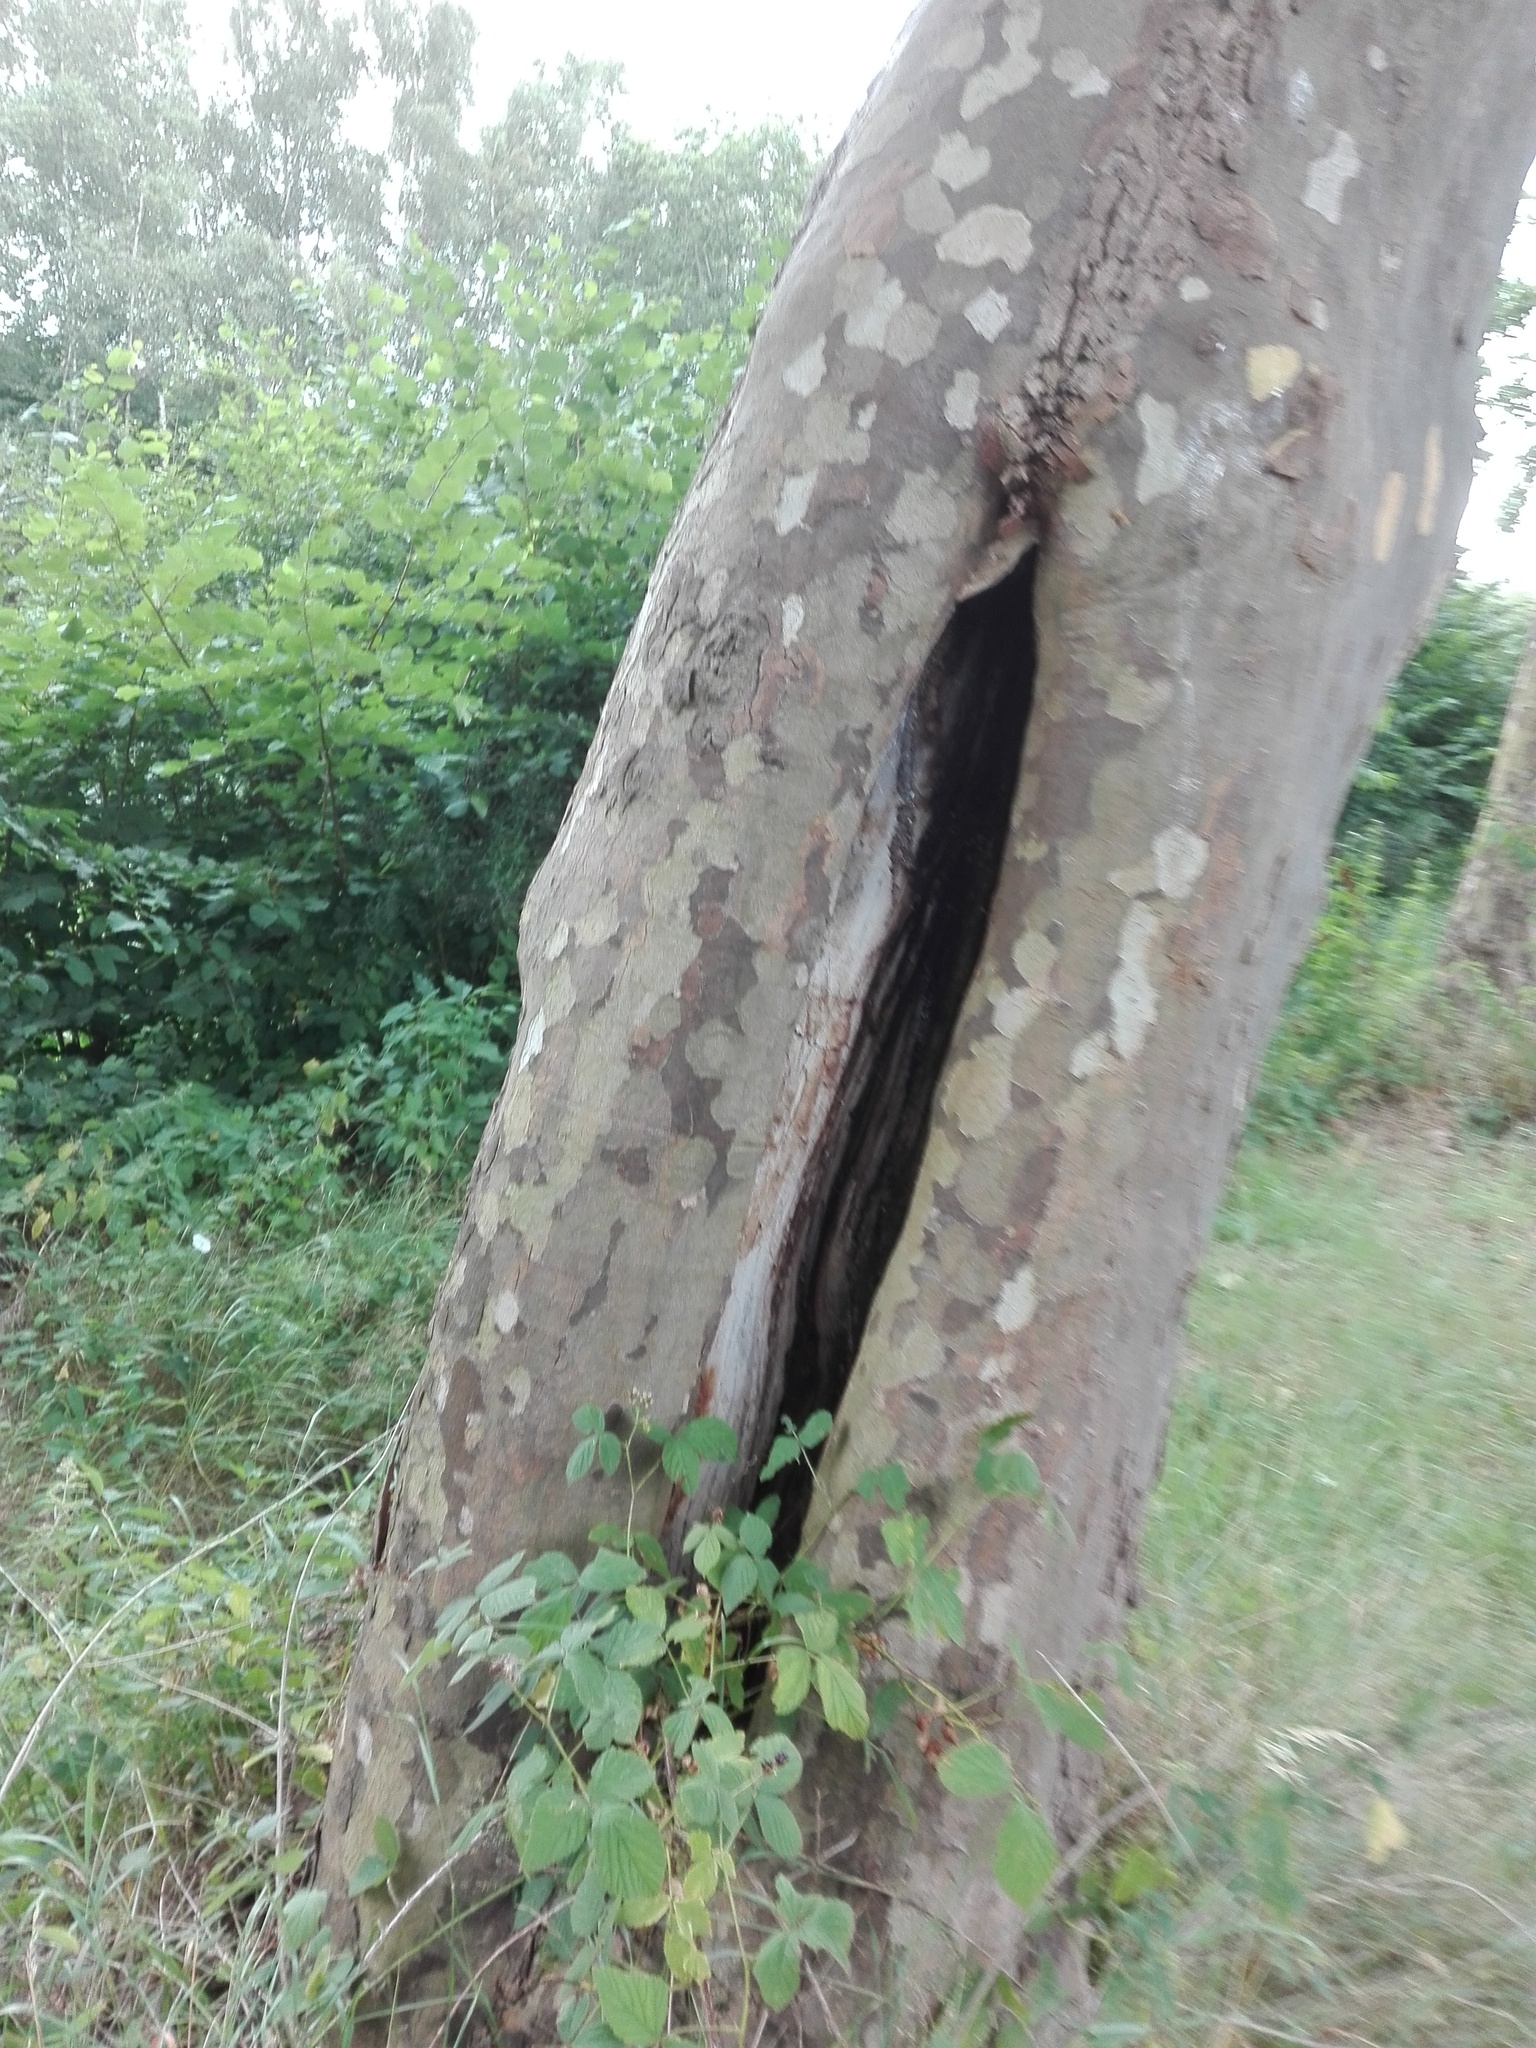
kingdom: Animalia
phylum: Arthropoda
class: Insecta
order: Hymenoptera
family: Vespidae
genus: Vespa
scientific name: Vespa crabro
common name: Hornet
